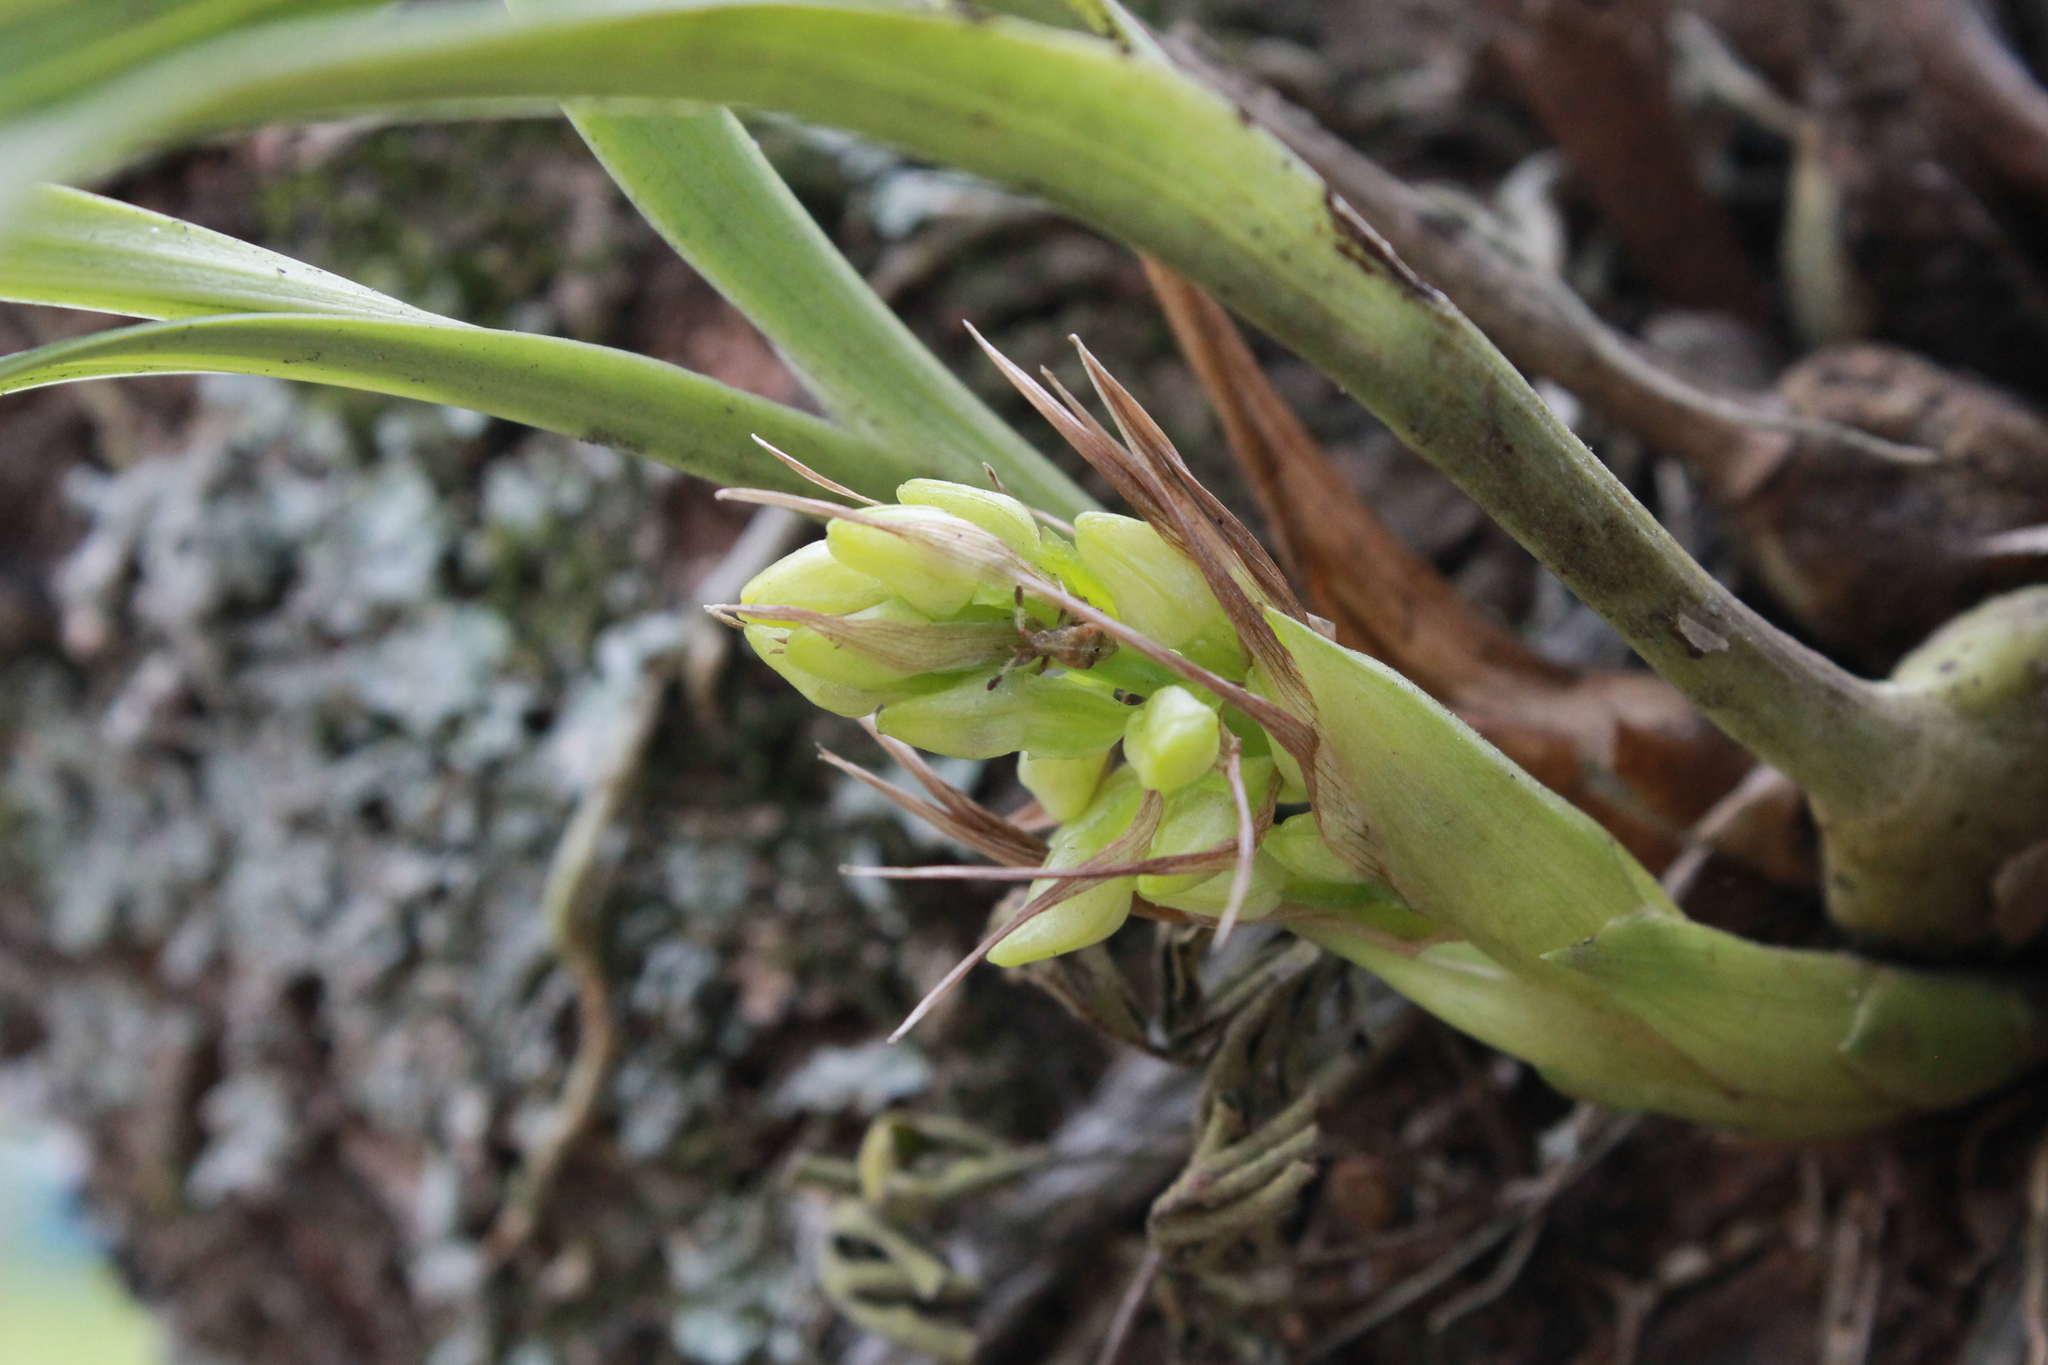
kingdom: Plantae
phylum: Tracheophyta
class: Liliopsida
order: Asparagales
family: Orchidaceae
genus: Coelia
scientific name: Coelia triptera
